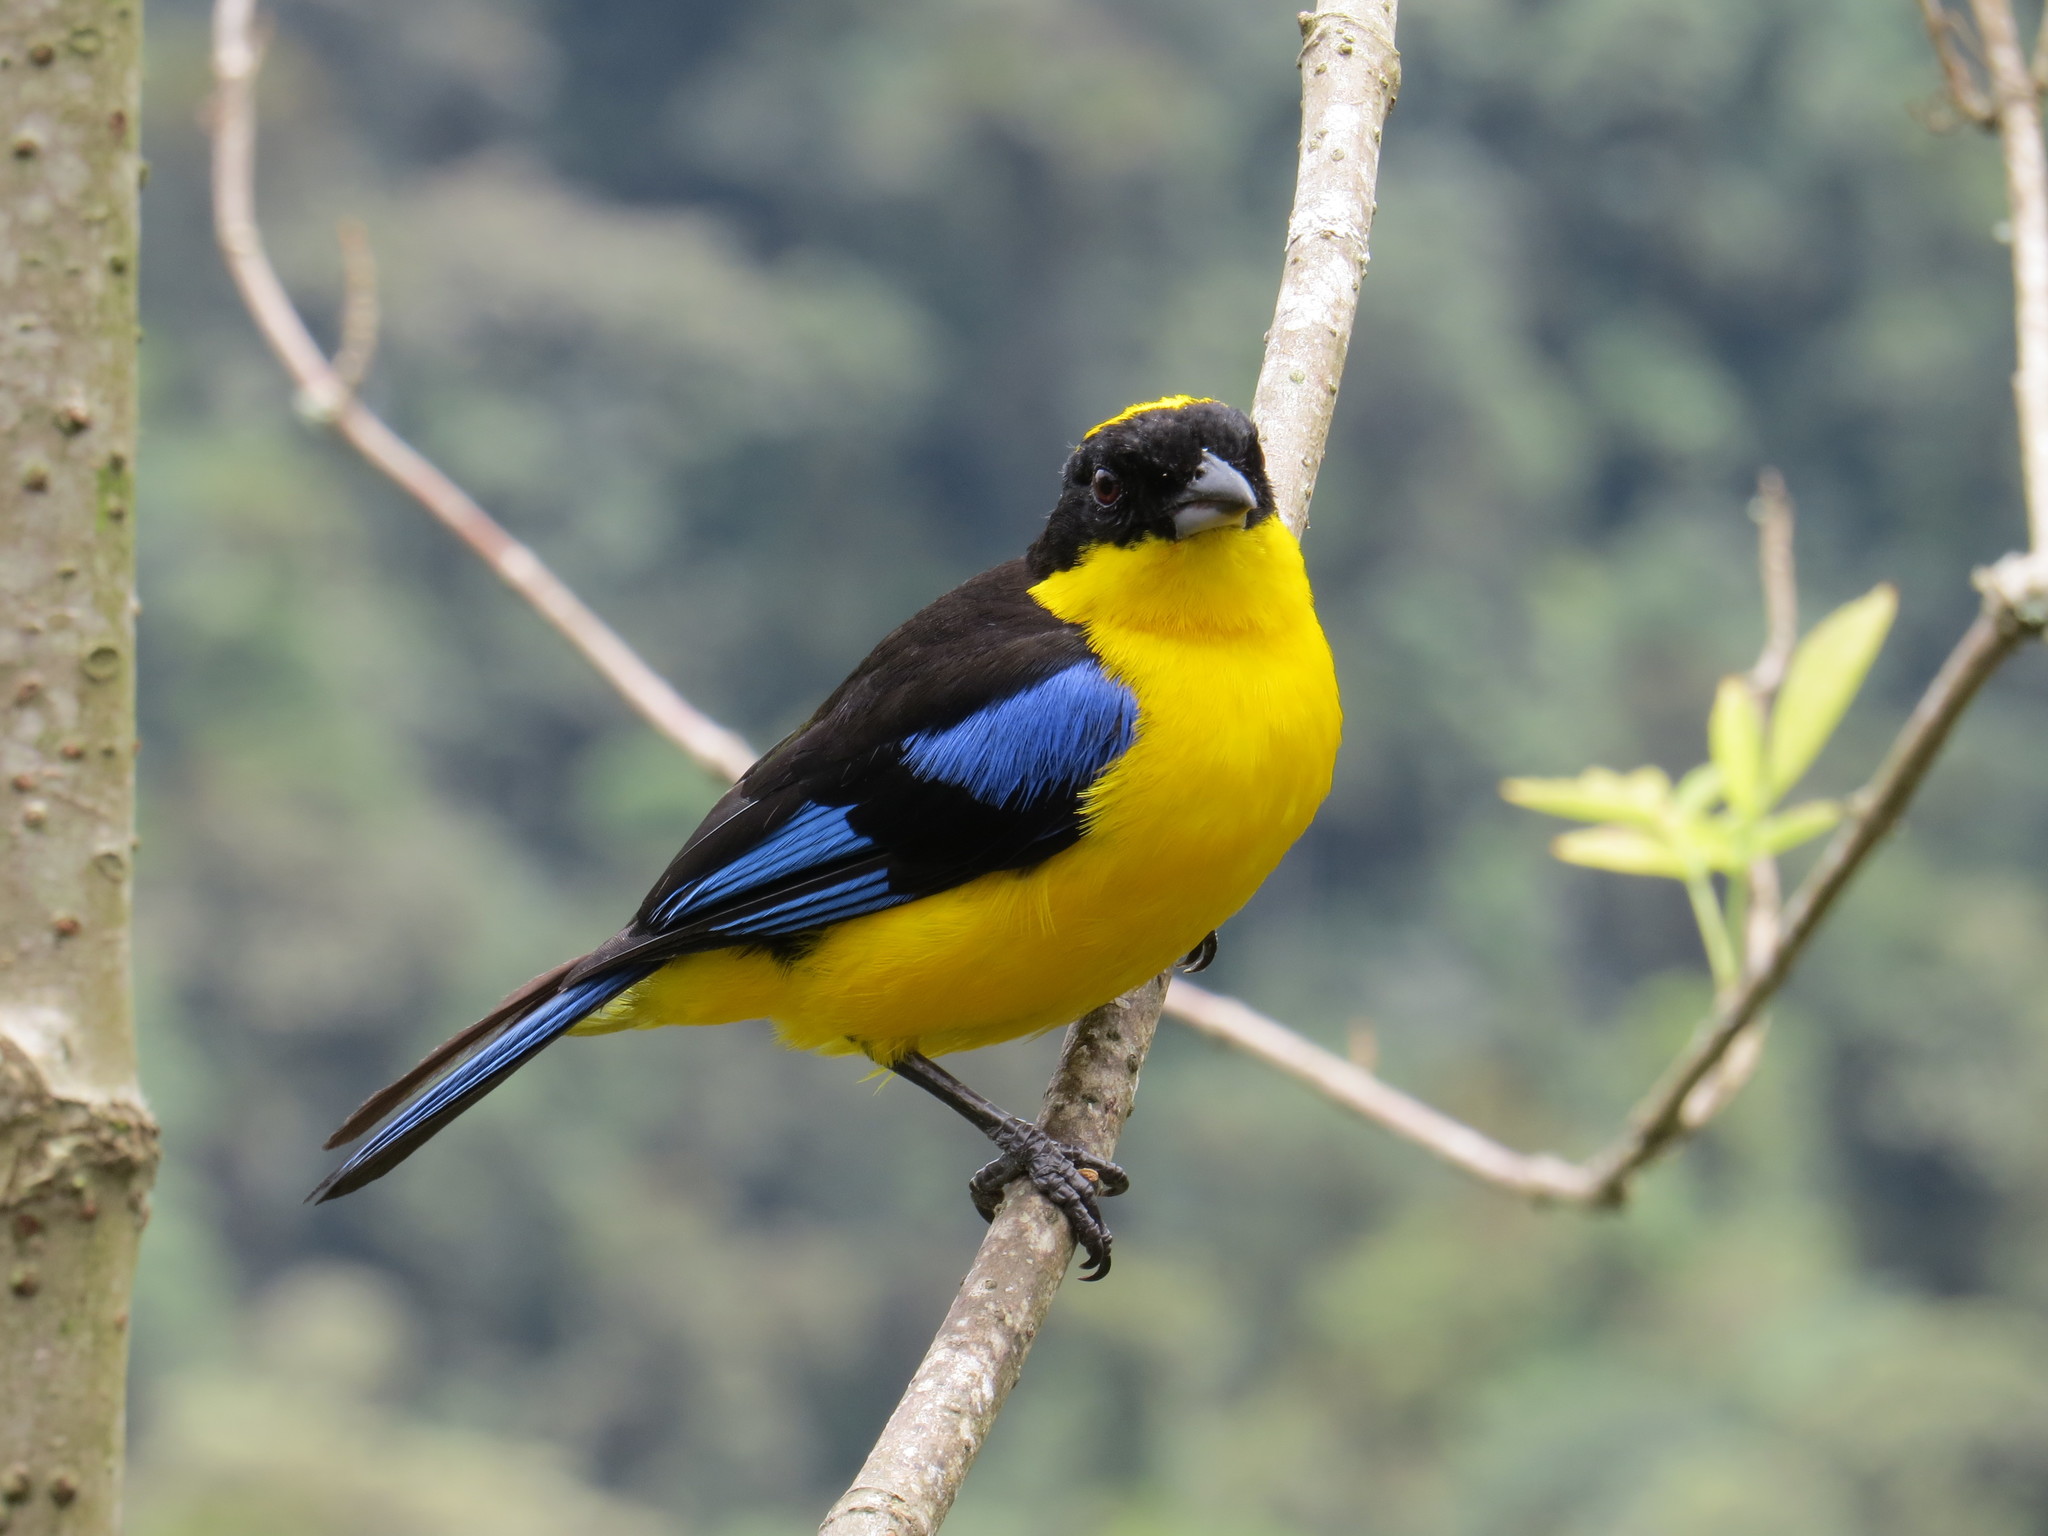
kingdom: Animalia
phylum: Chordata
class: Aves
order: Passeriformes
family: Thraupidae
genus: Anisognathus
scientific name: Anisognathus somptuosus
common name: Blue-winged mountain-tanager
